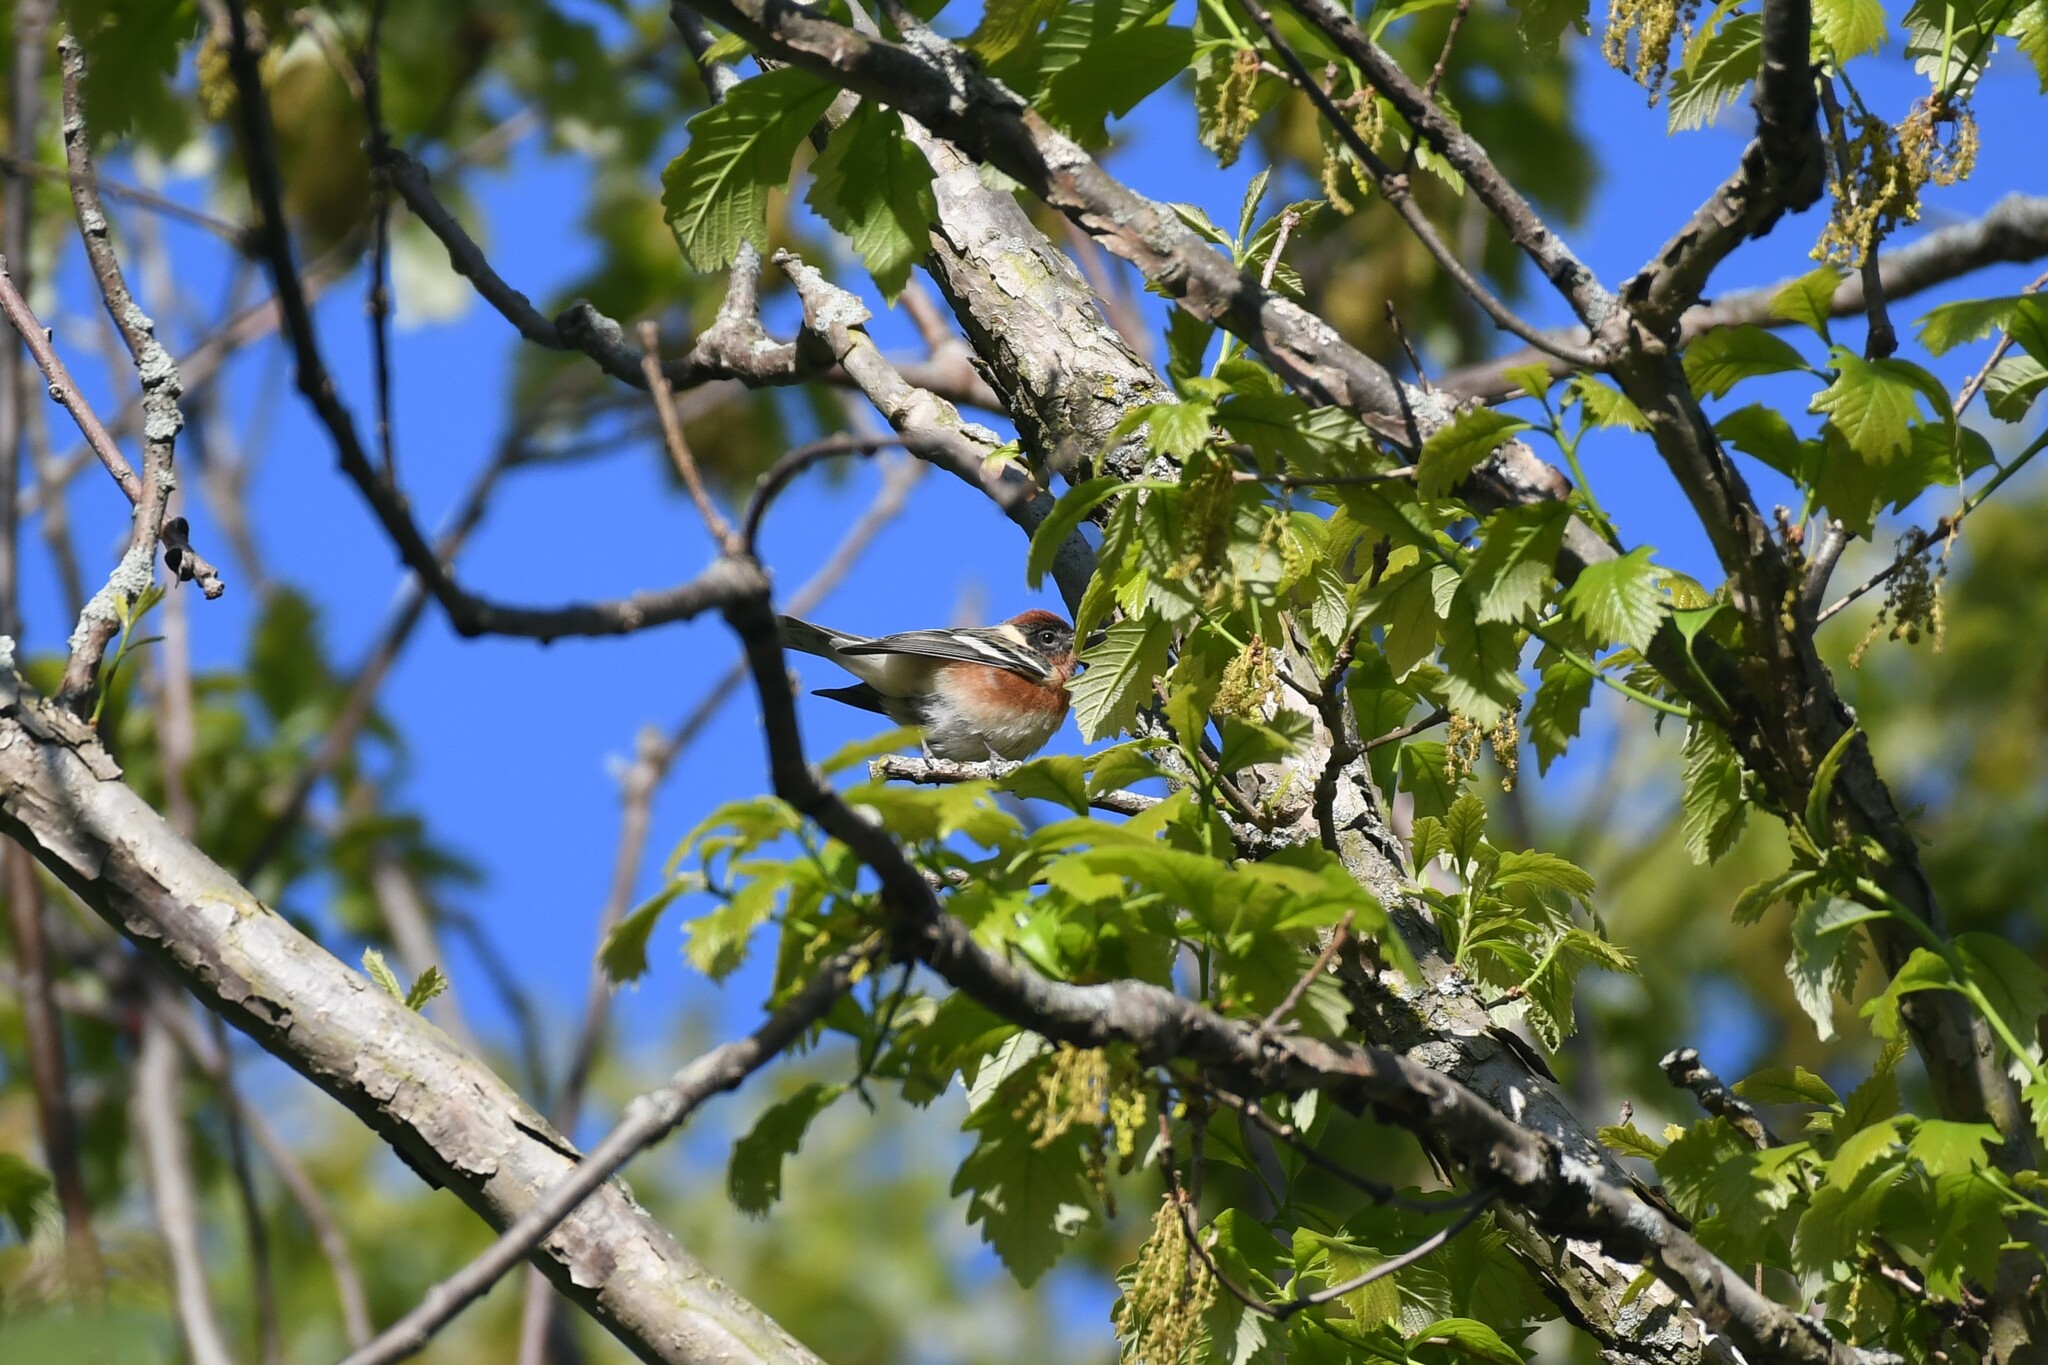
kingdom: Animalia
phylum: Chordata
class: Aves
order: Passeriformes
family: Parulidae
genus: Setophaga
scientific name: Setophaga castanea
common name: Bay-breasted warbler
